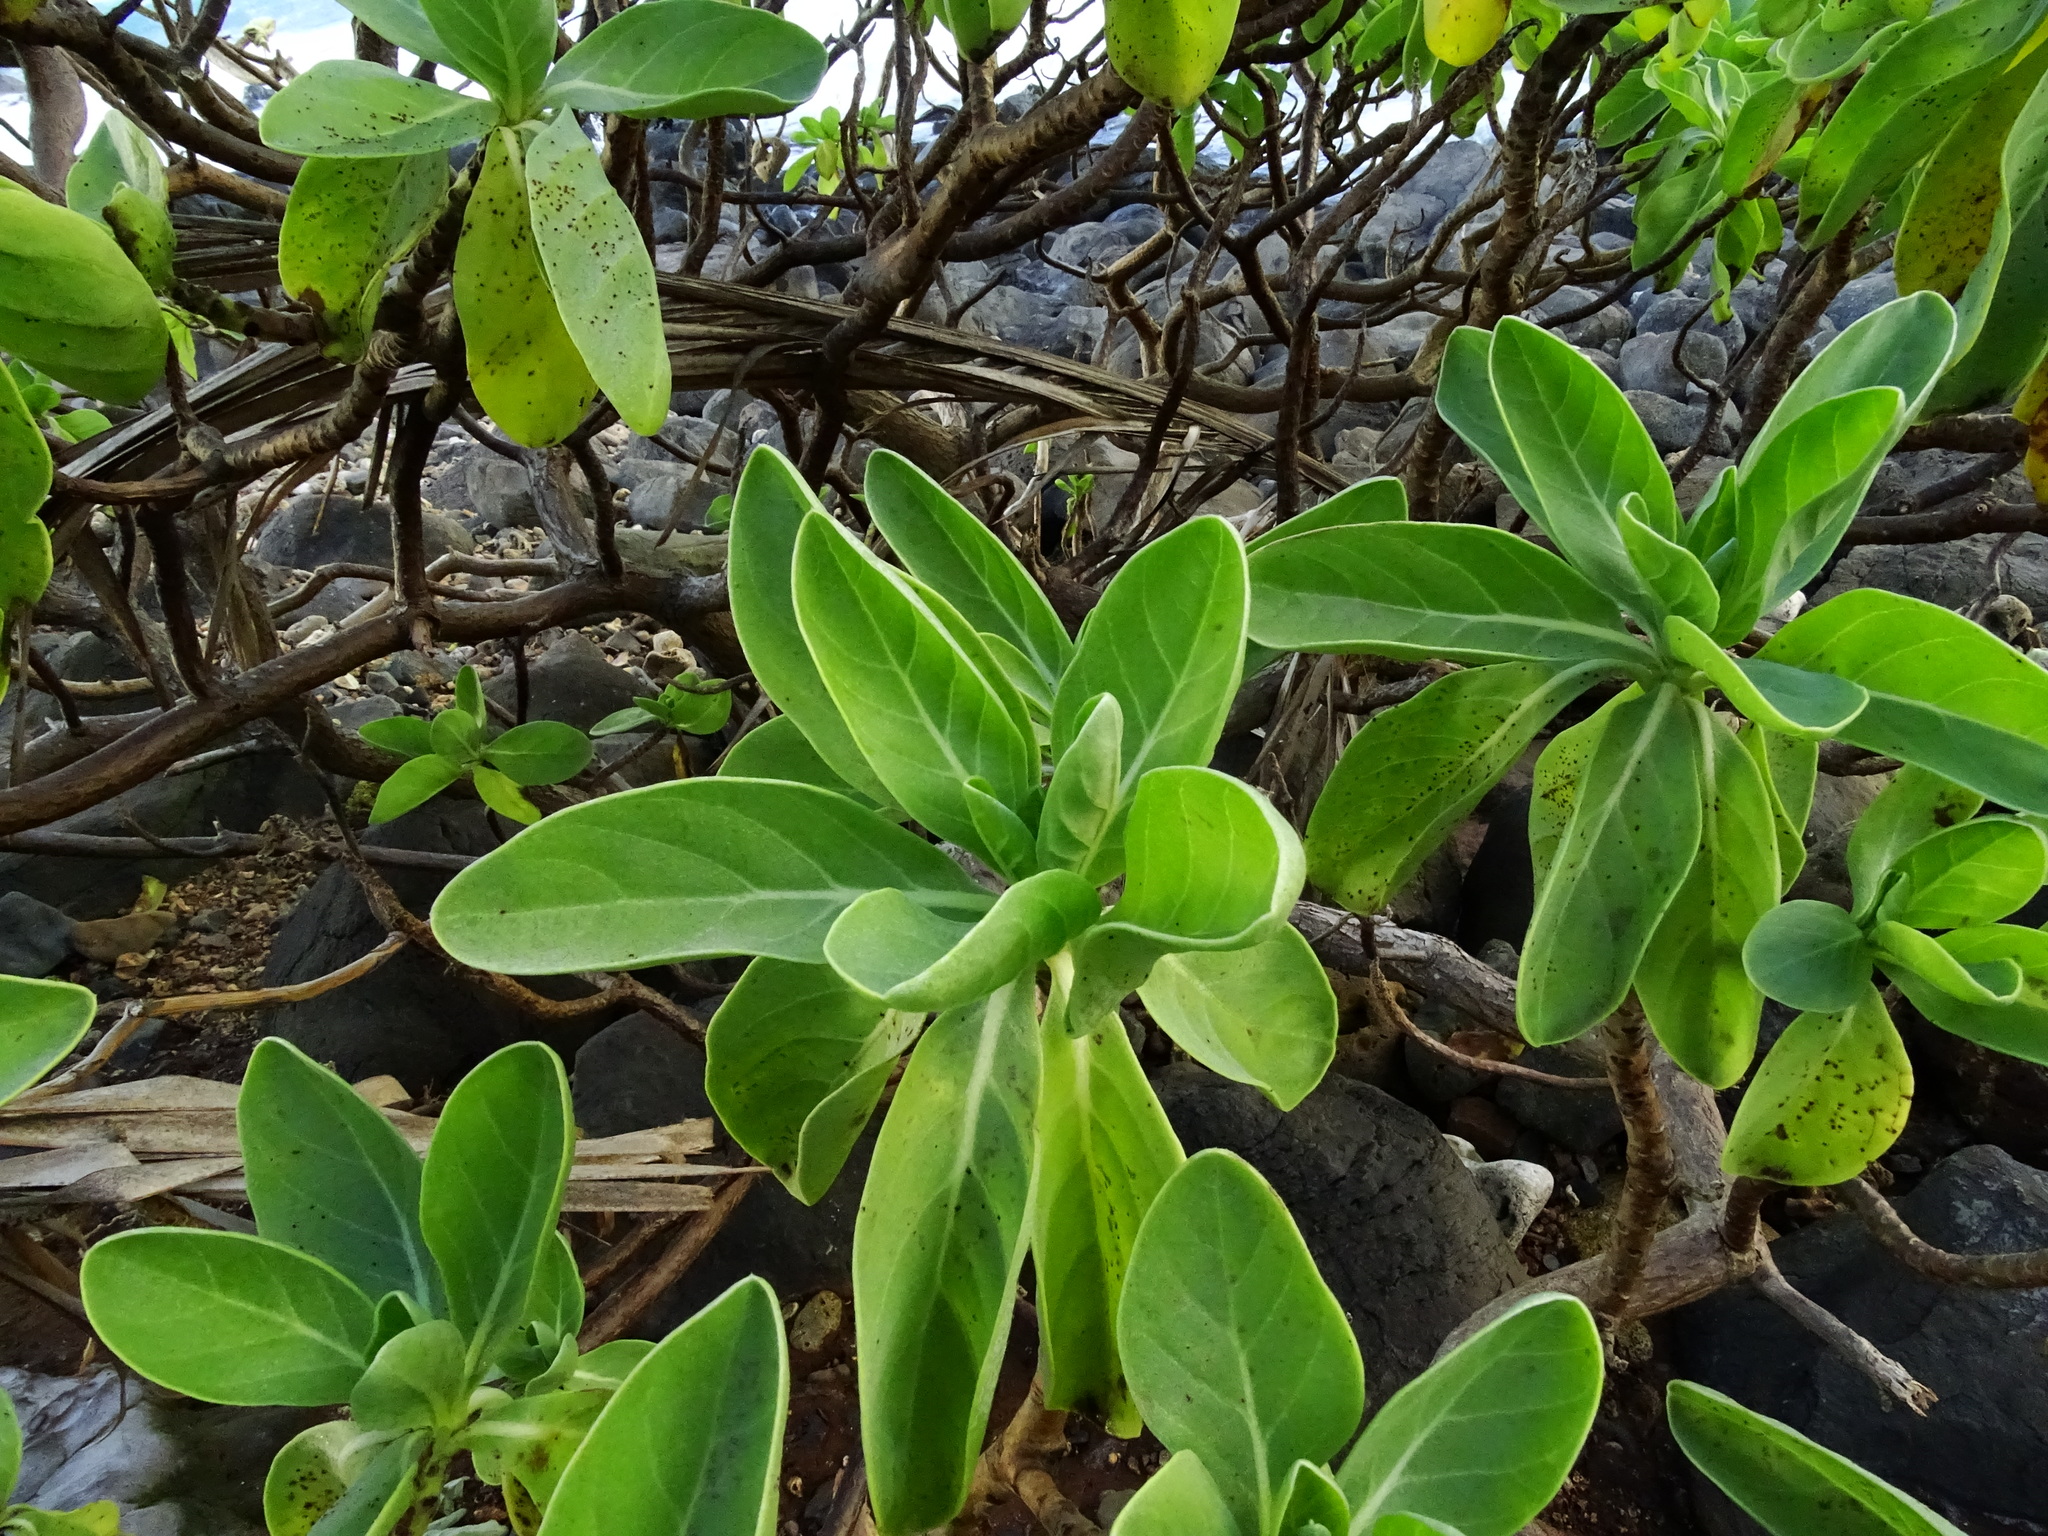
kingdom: Plantae
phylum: Tracheophyta
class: Magnoliopsida
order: Boraginales
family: Heliotropiaceae
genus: Heliotropium
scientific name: Heliotropium velutinum
